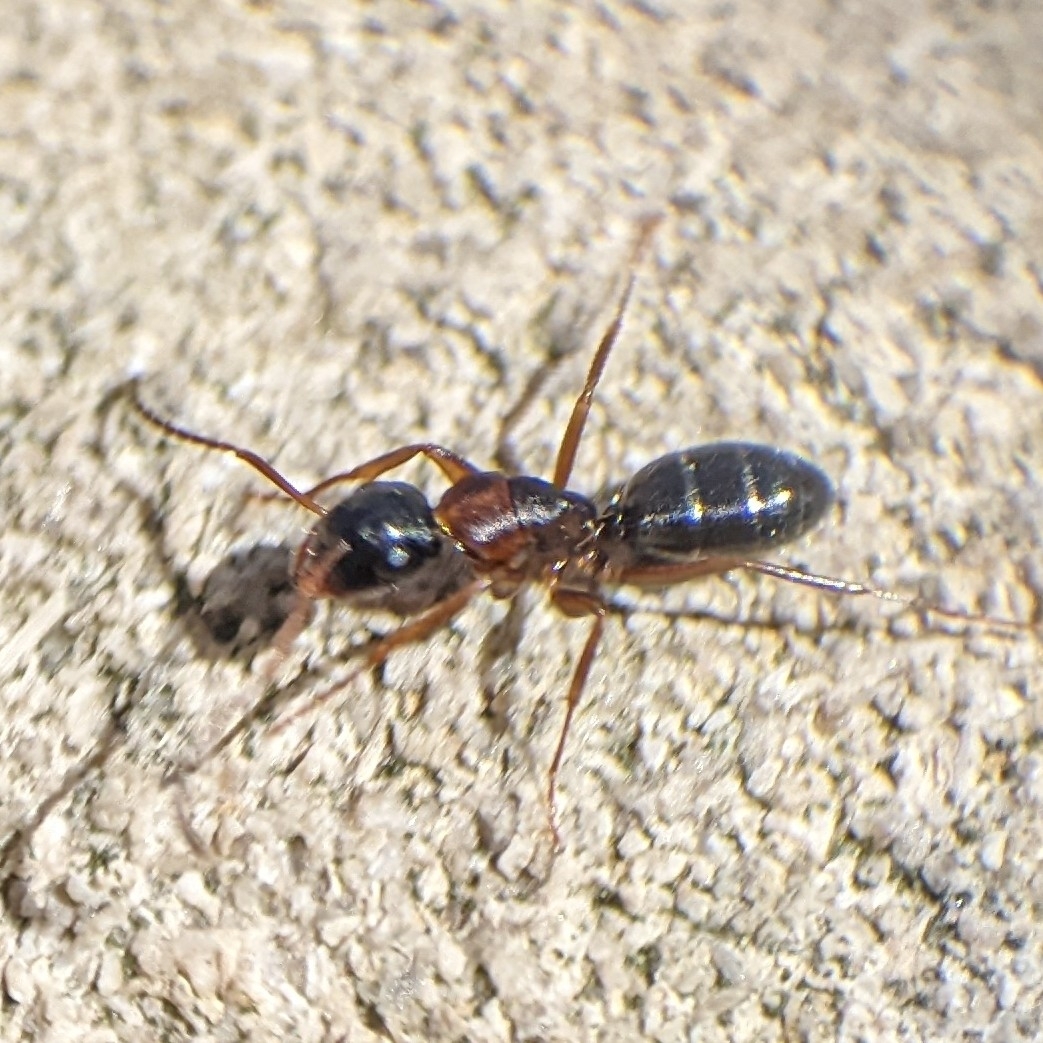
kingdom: Animalia
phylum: Arthropoda
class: Insecta
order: Hymenoptera
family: Formicidae
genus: Camponotus
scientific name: Camponotus nearcticus
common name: Smaller carpenter ant
